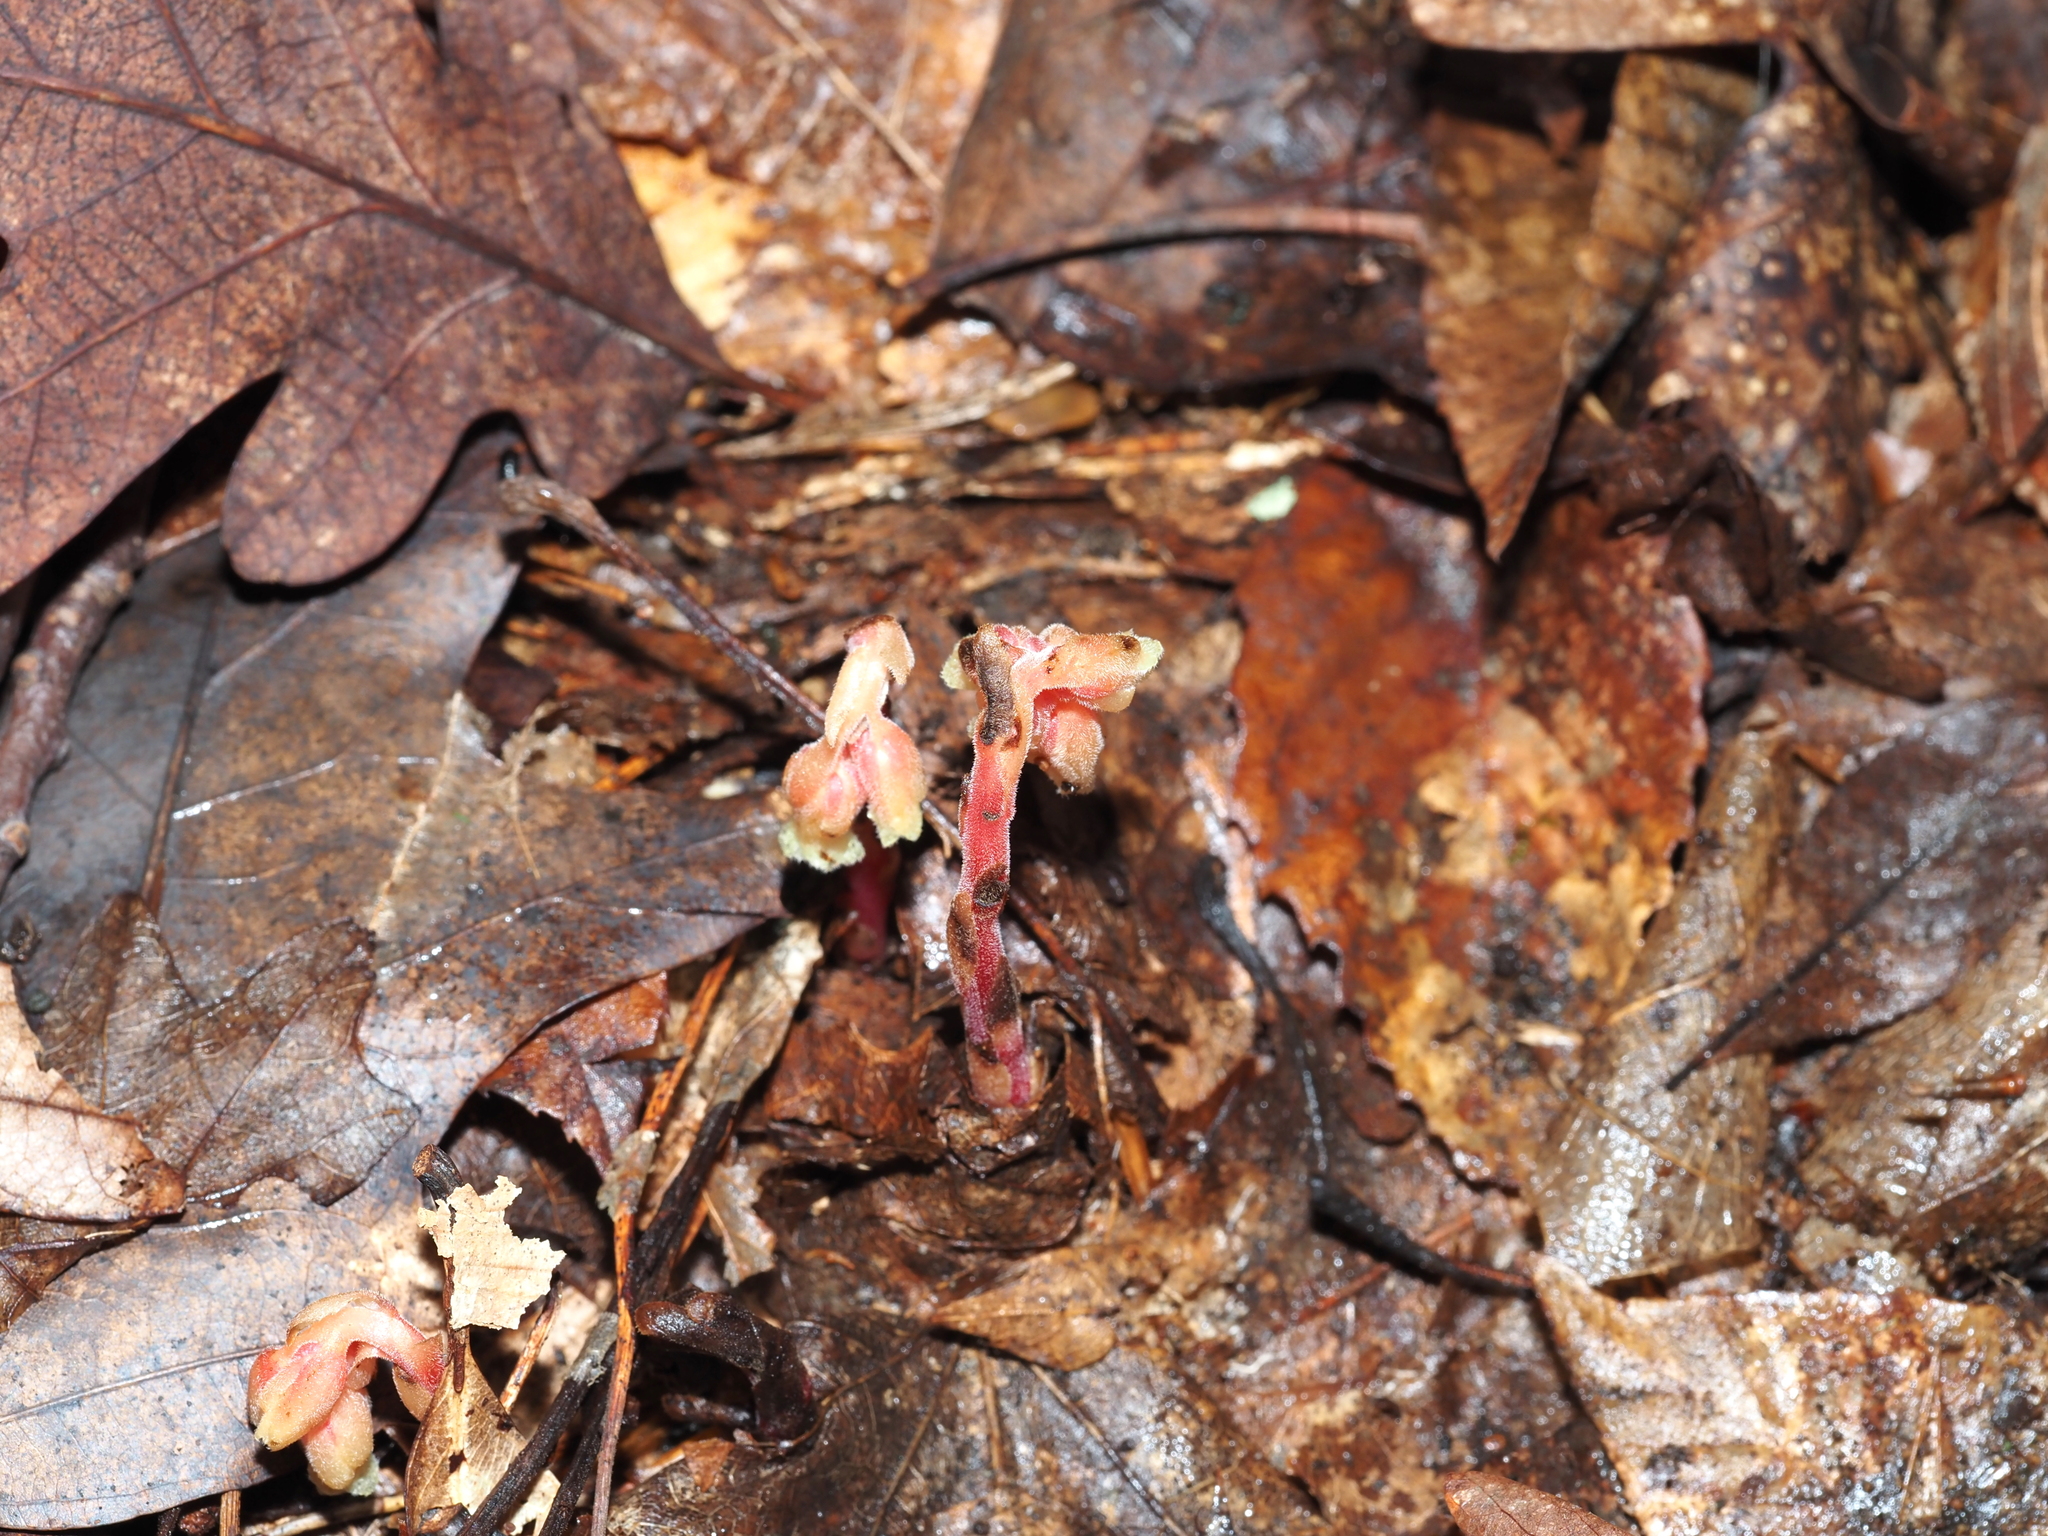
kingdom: Plantae
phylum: Tracheophyta
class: Magnoliopsida
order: Ericales
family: Ericaceae
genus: Hypopitys
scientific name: Hypopitys monotropa
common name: Yellow bird's-nest
